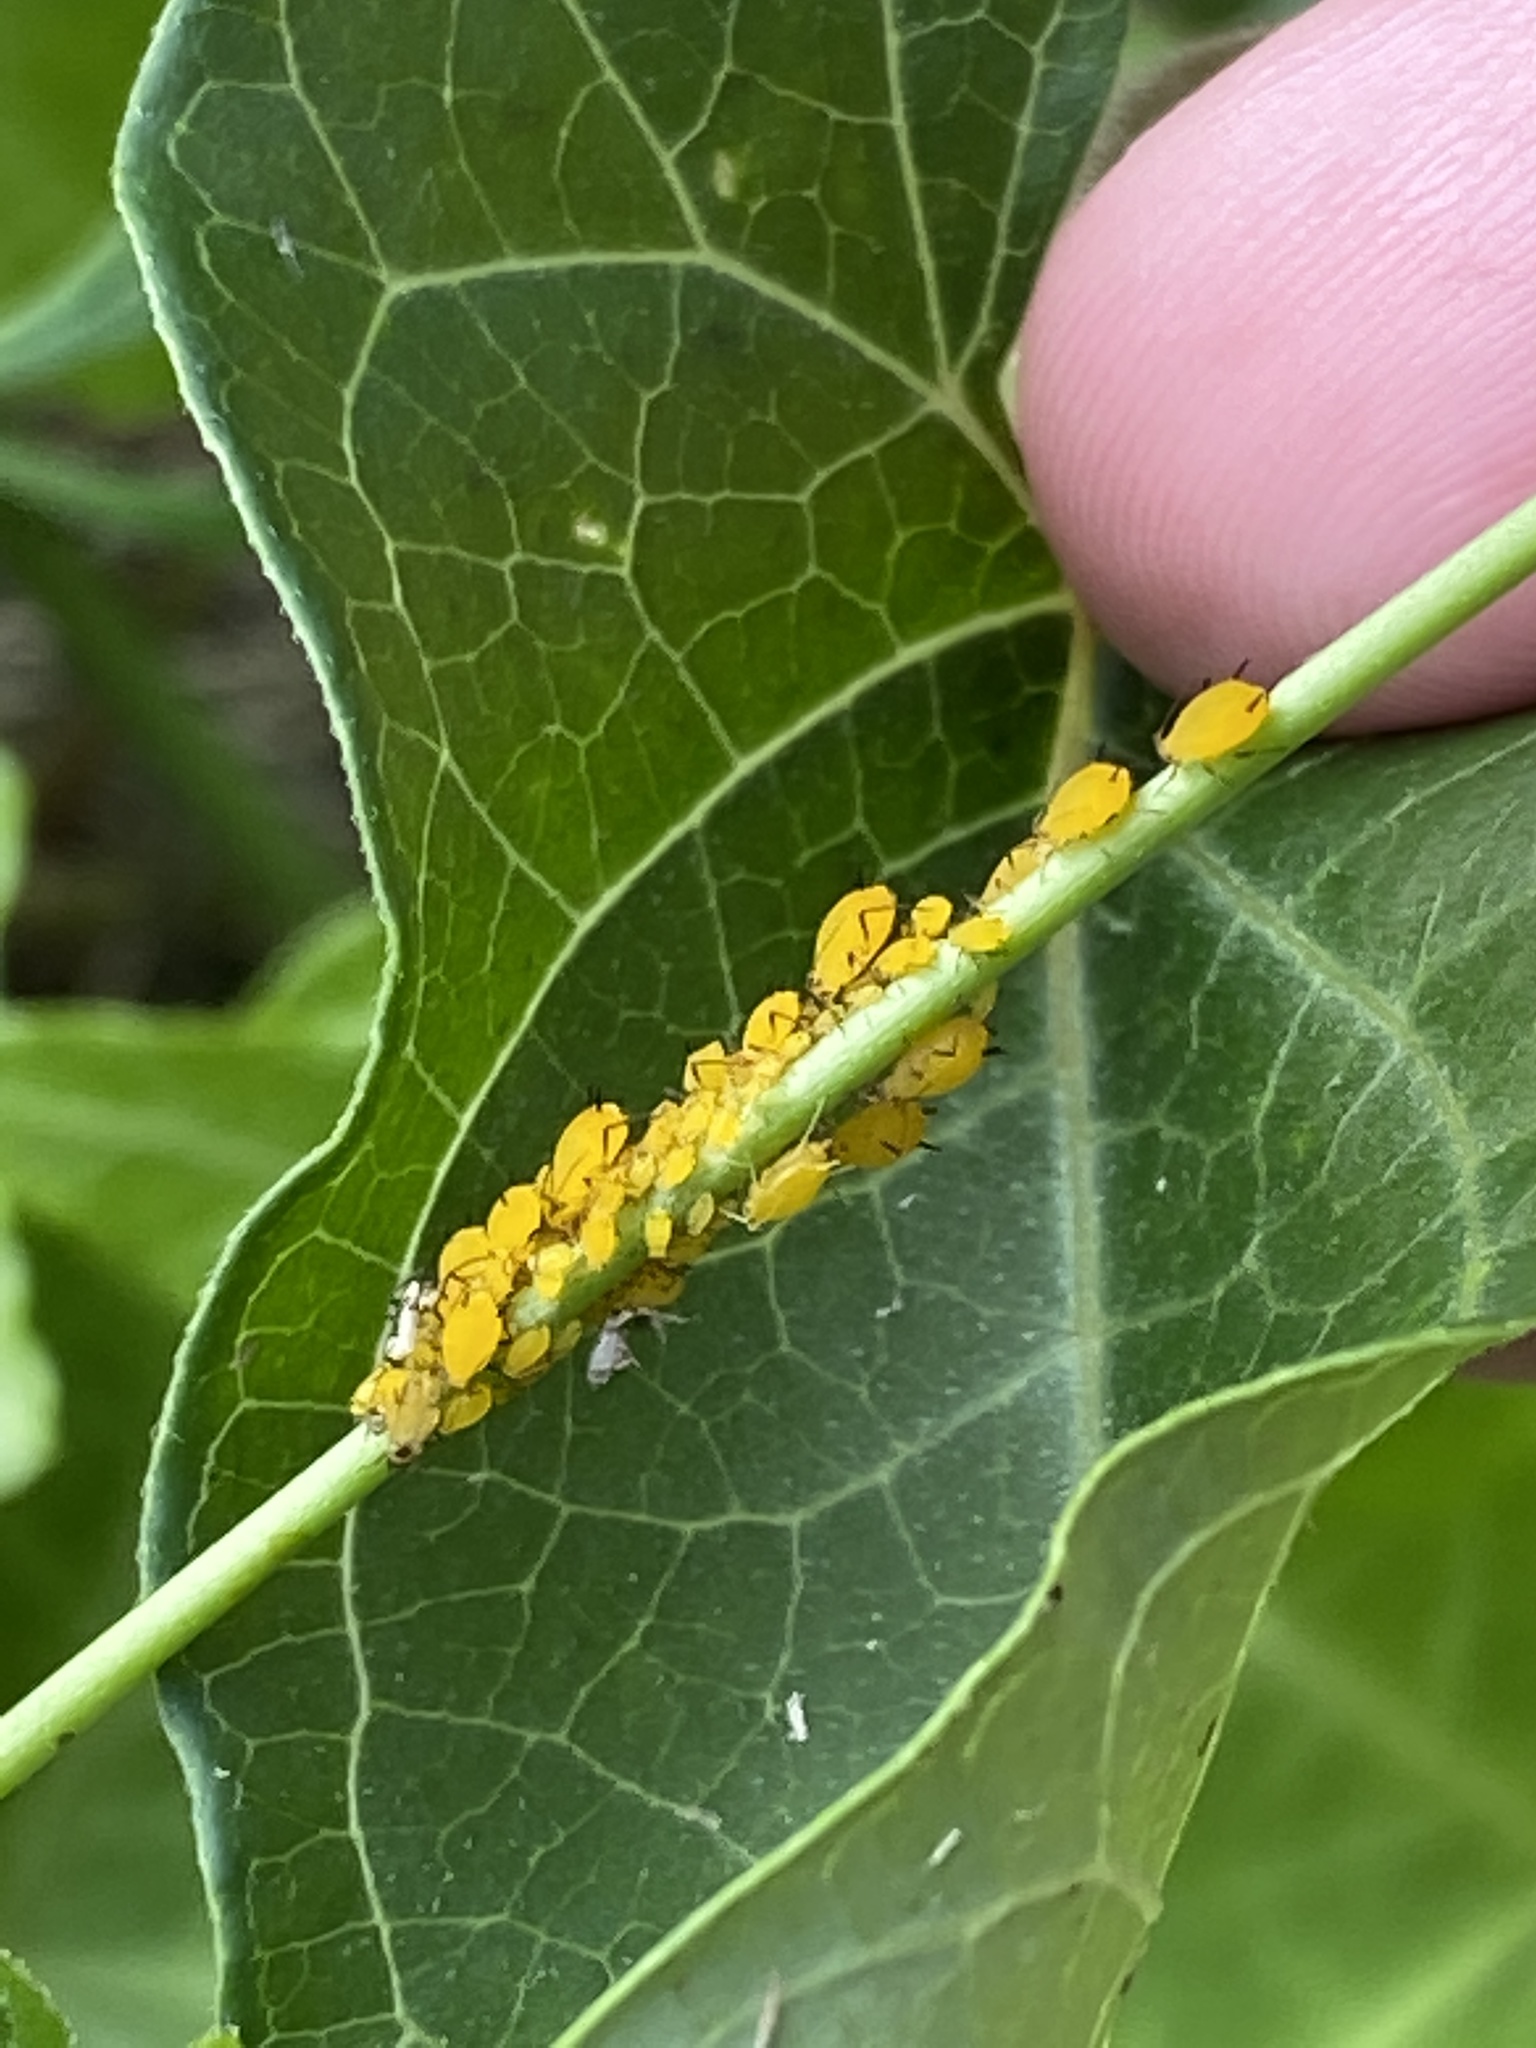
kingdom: Animalia
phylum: Arthropoda
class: Insecta
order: Hemiptera
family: Aphididae
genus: Aphis
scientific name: Aphis nerii
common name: Oleander aphid
